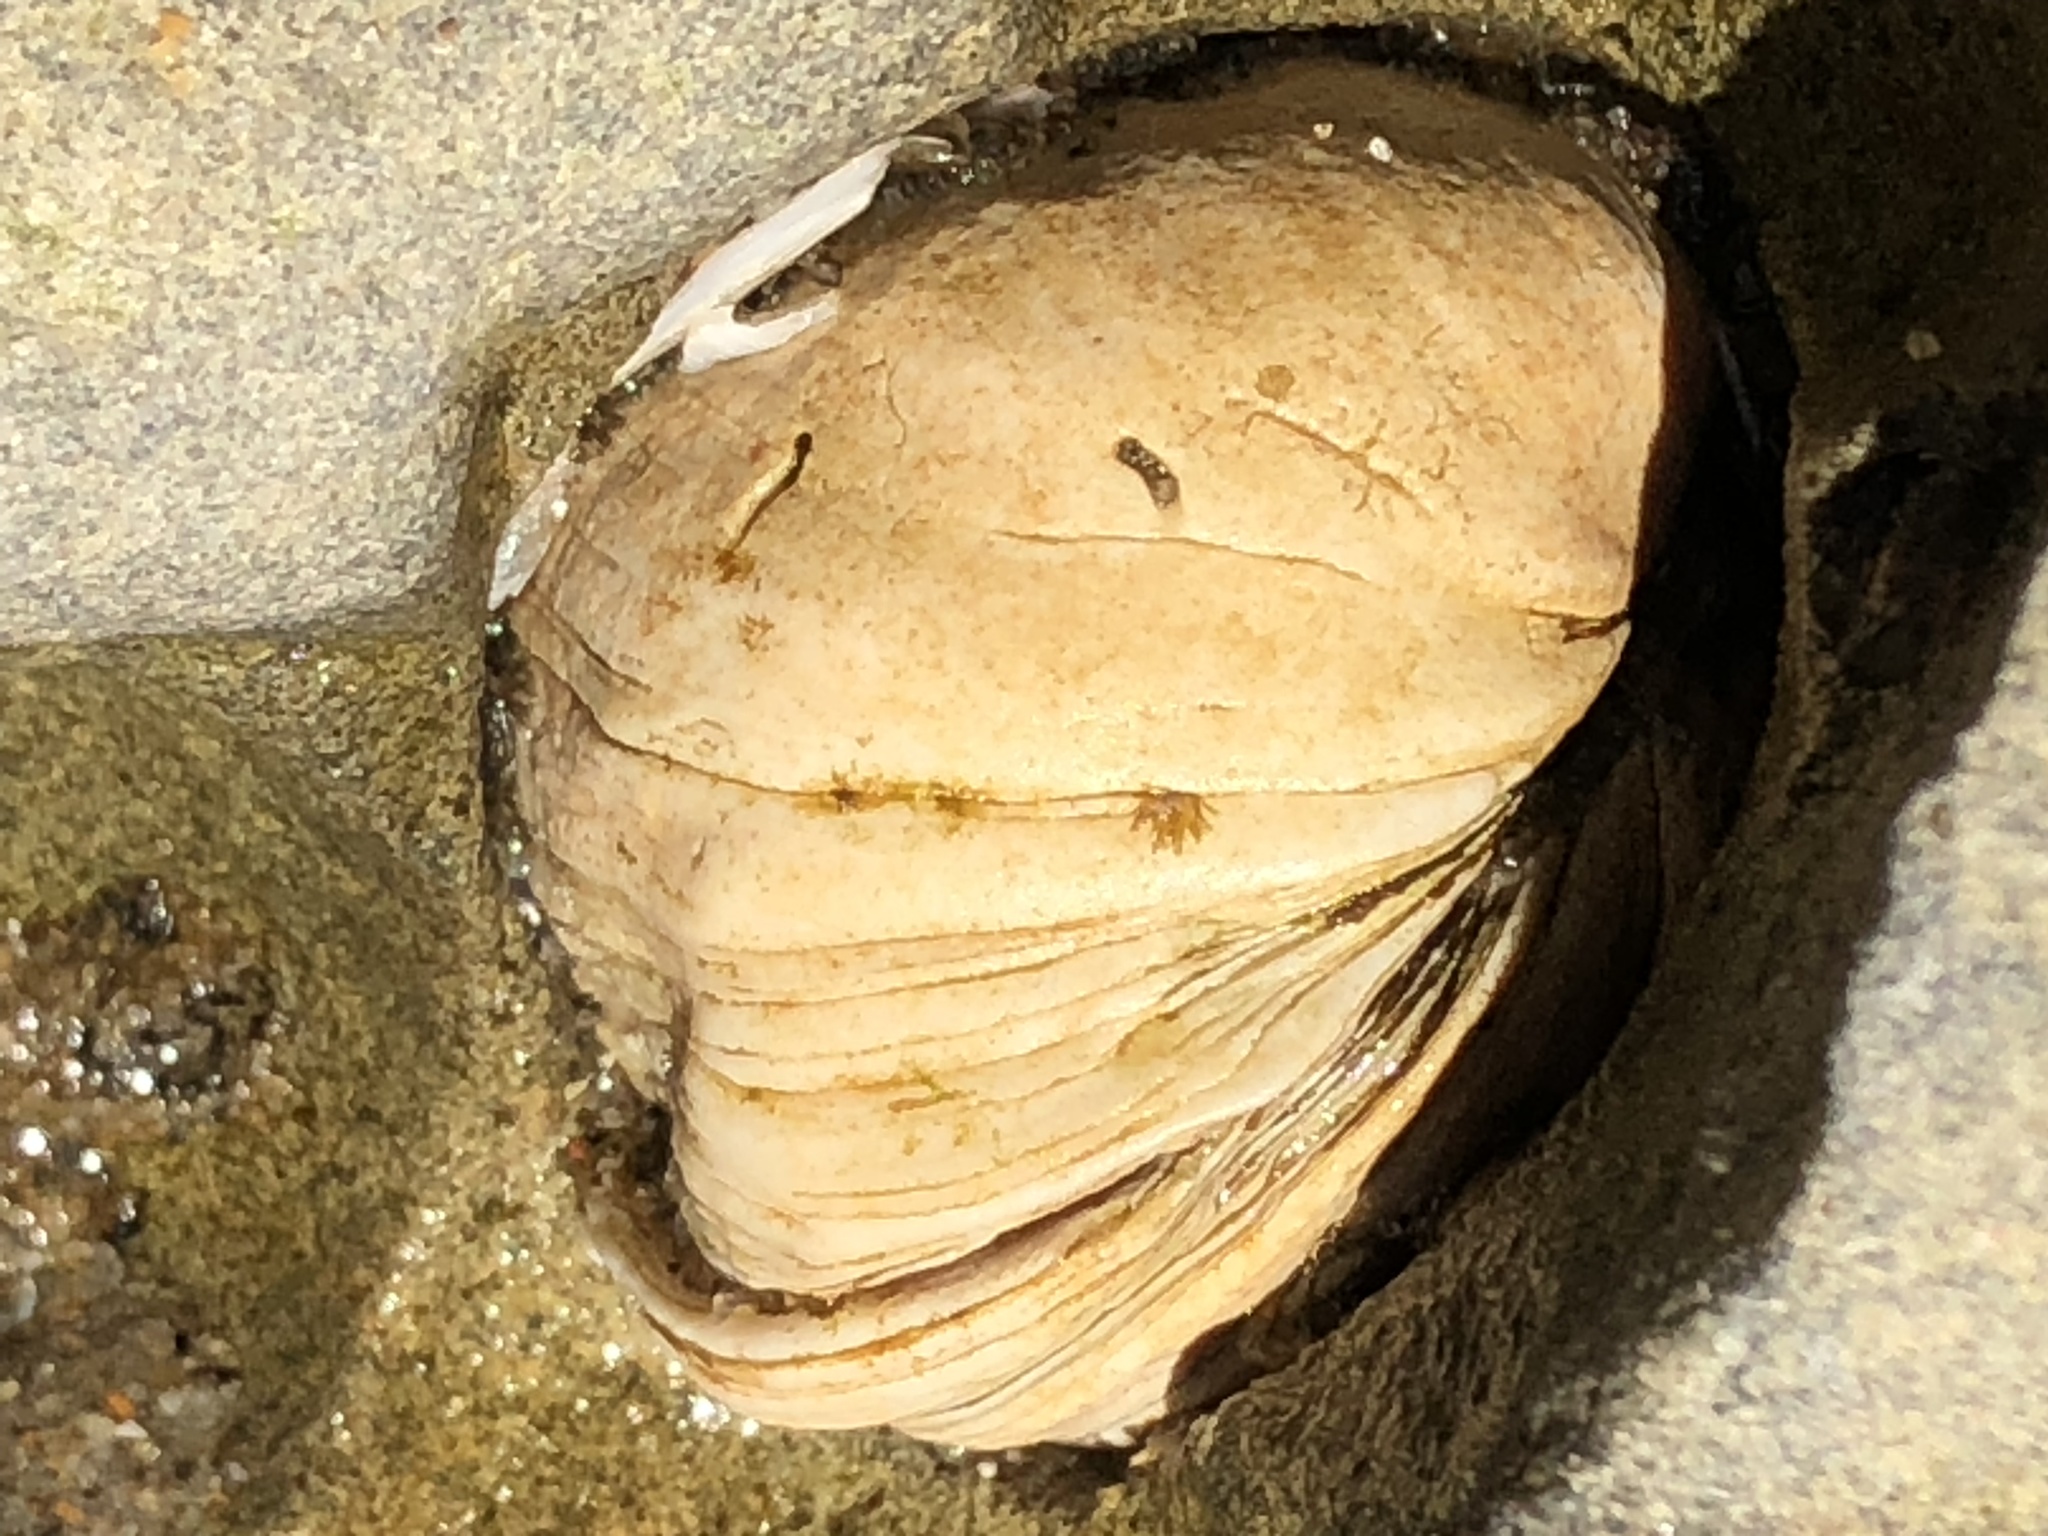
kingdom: Animalia
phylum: Mollusca
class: Bivalvia
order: Venerida
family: Veneridae
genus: Petricola
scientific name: Petricola carditoides
